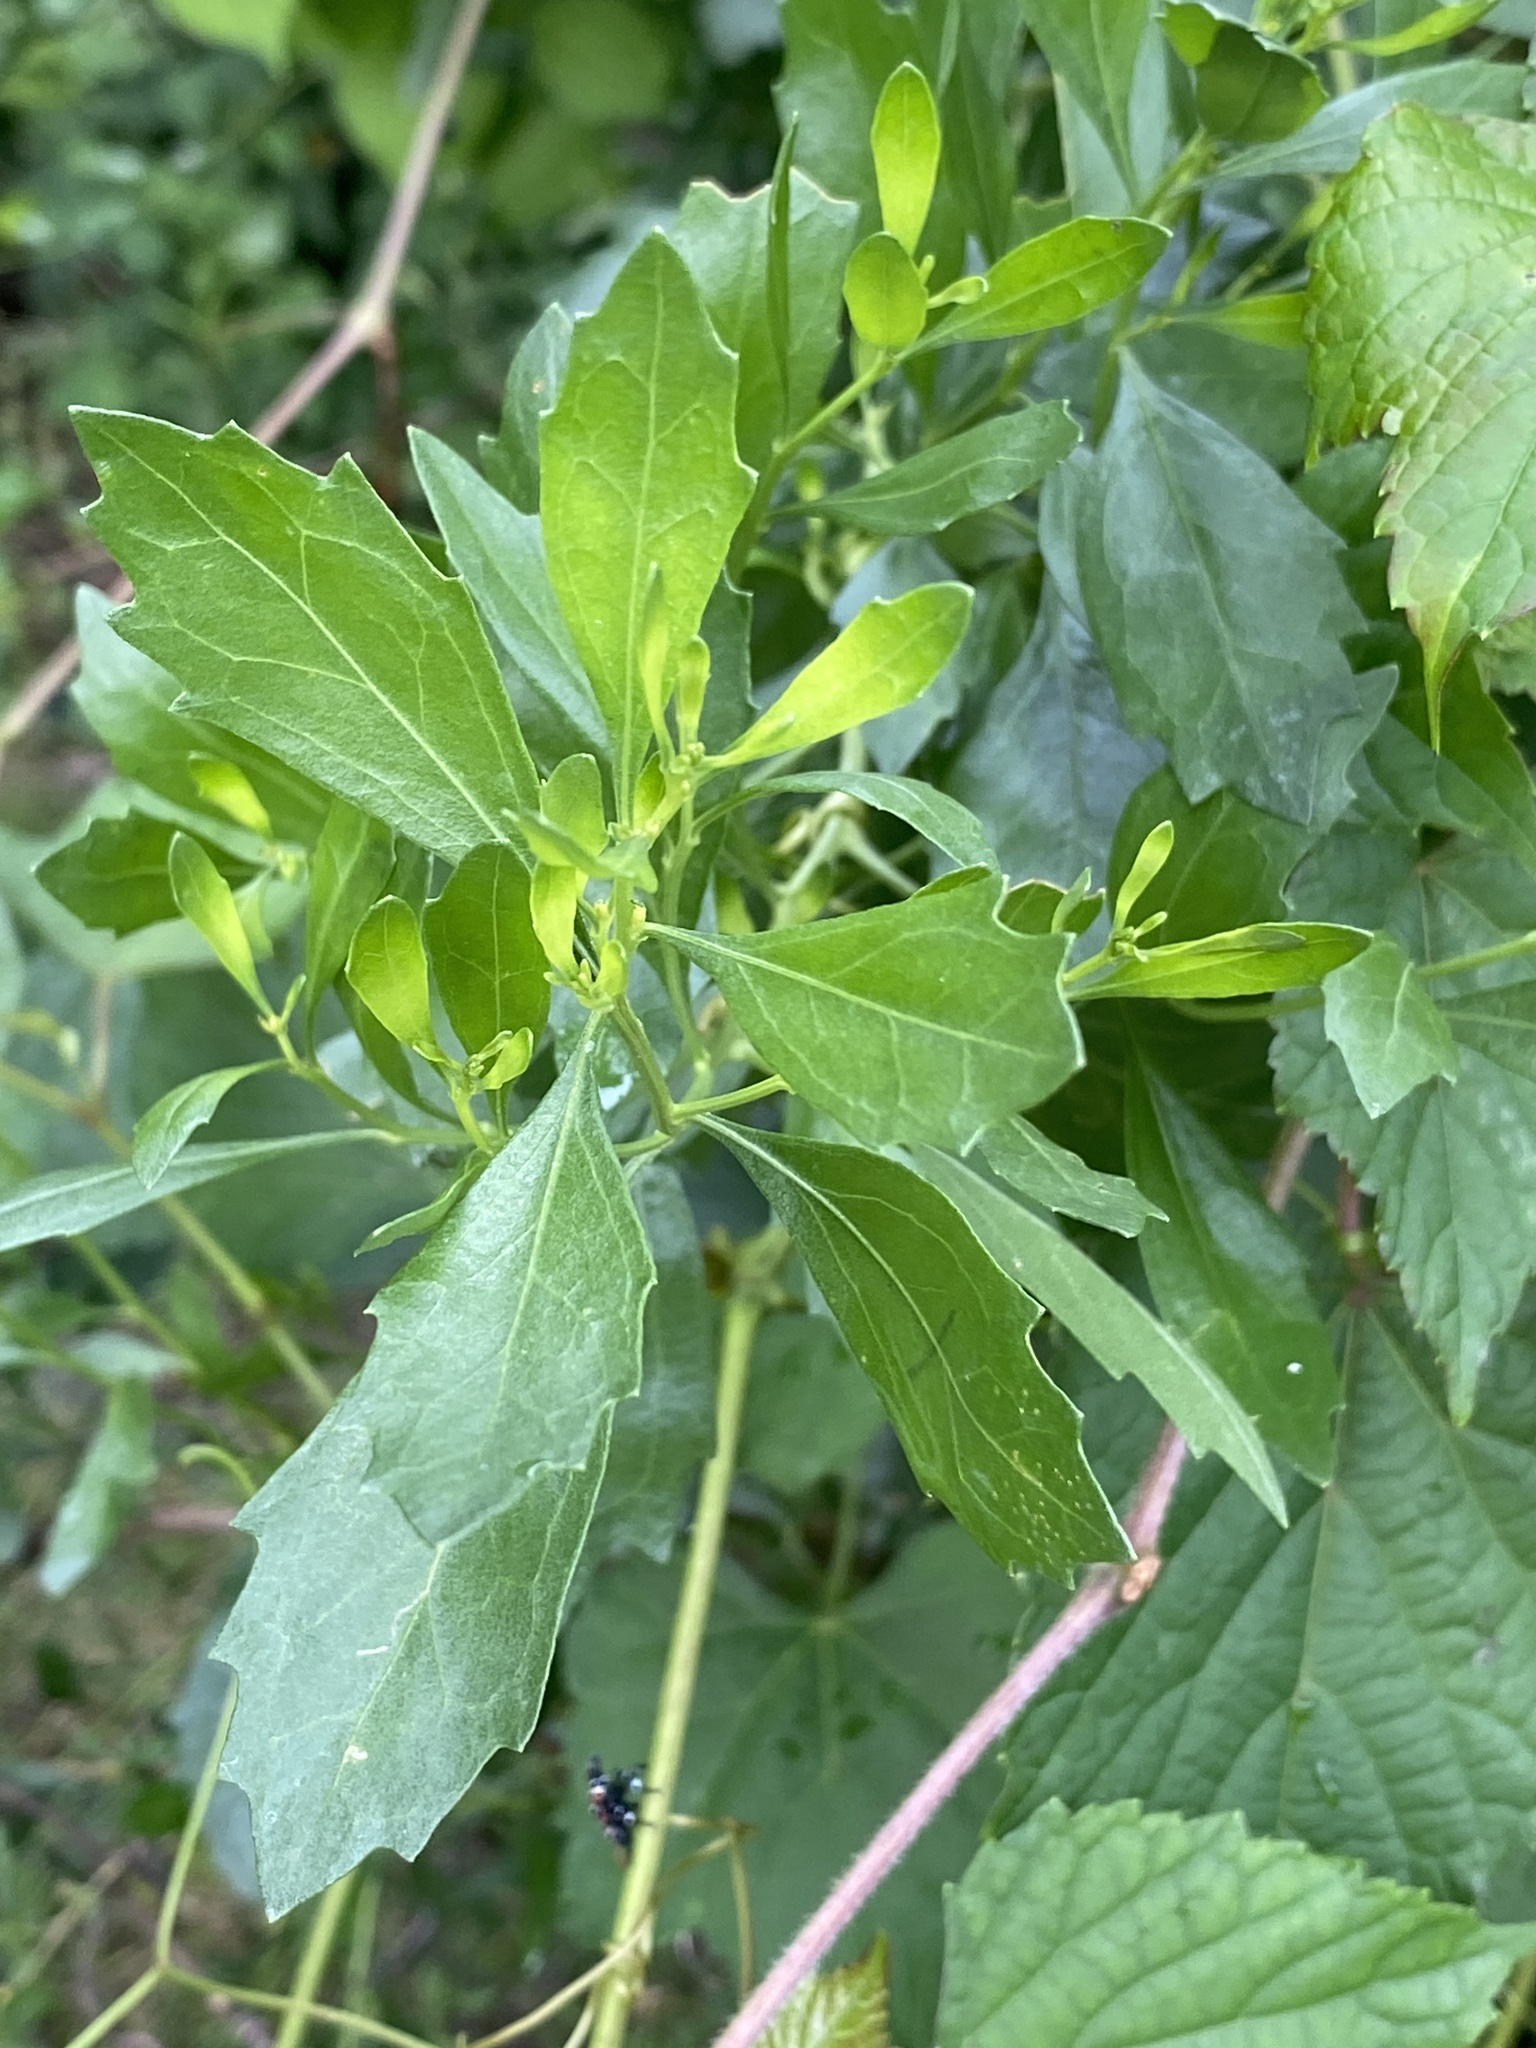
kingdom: Plantae
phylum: Tracheophyta
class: Magnoliopsida
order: Asterales
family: Asteraceae
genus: Baccharis
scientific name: Baccharis halimifolia
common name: Eastern baccharis
